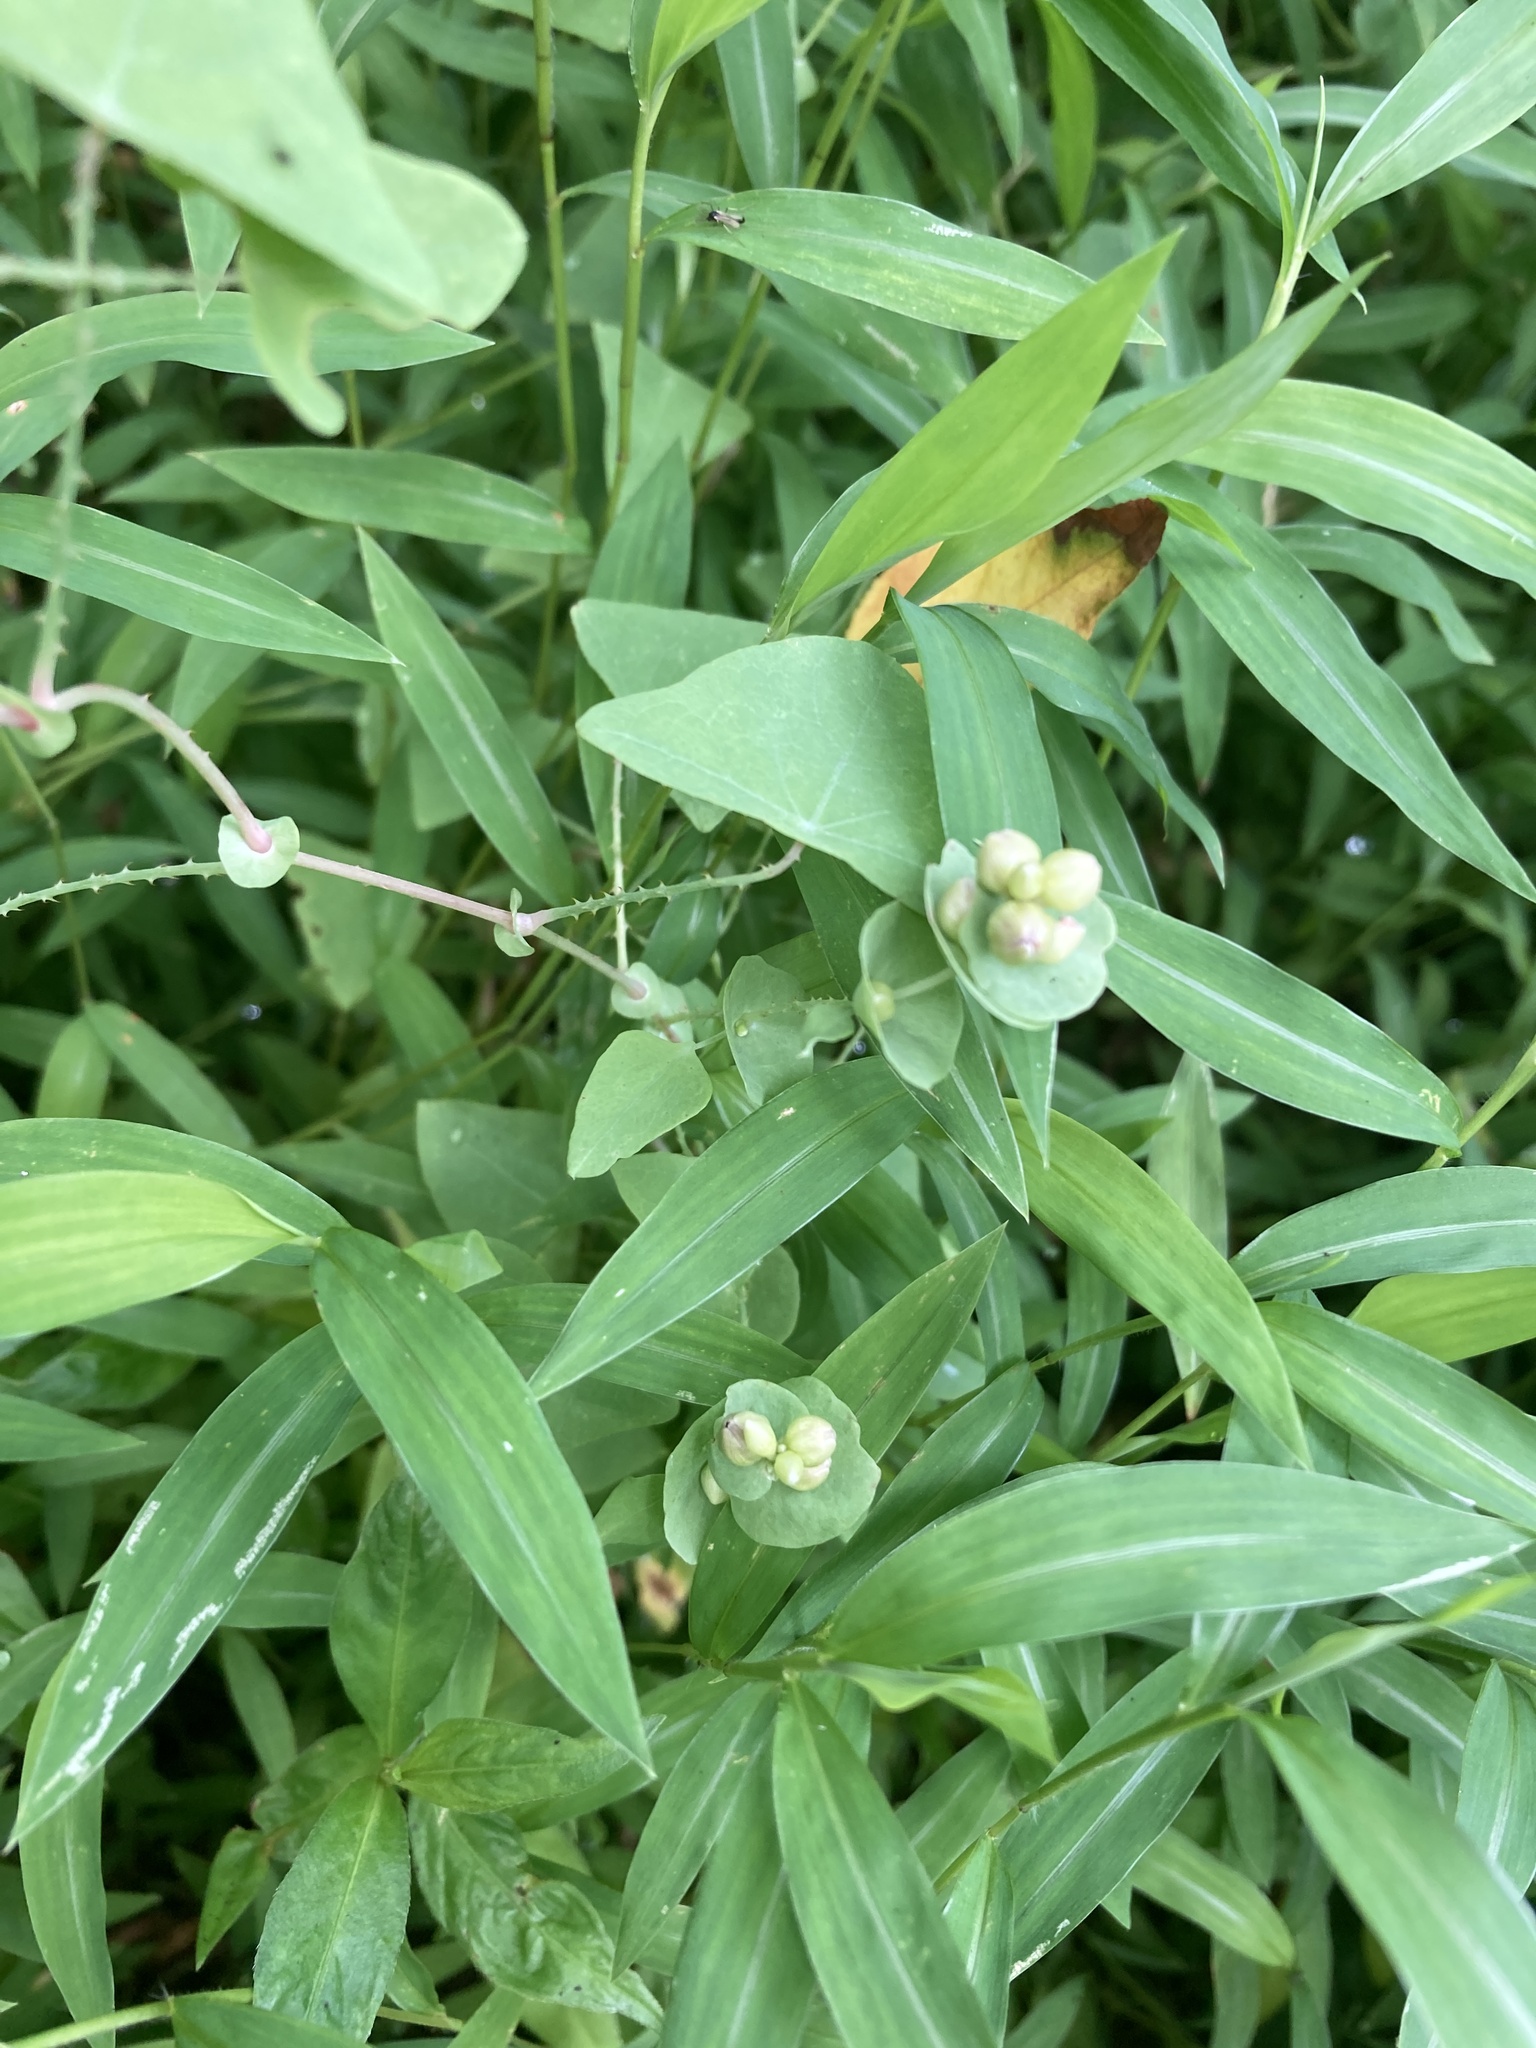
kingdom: Plantae
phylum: Tracheophyta
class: Magnoliopsida
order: Caryophyllales
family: Polygonaceae
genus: Persicaria
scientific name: Persicaria perfoliata
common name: Asiatic tearthumb
